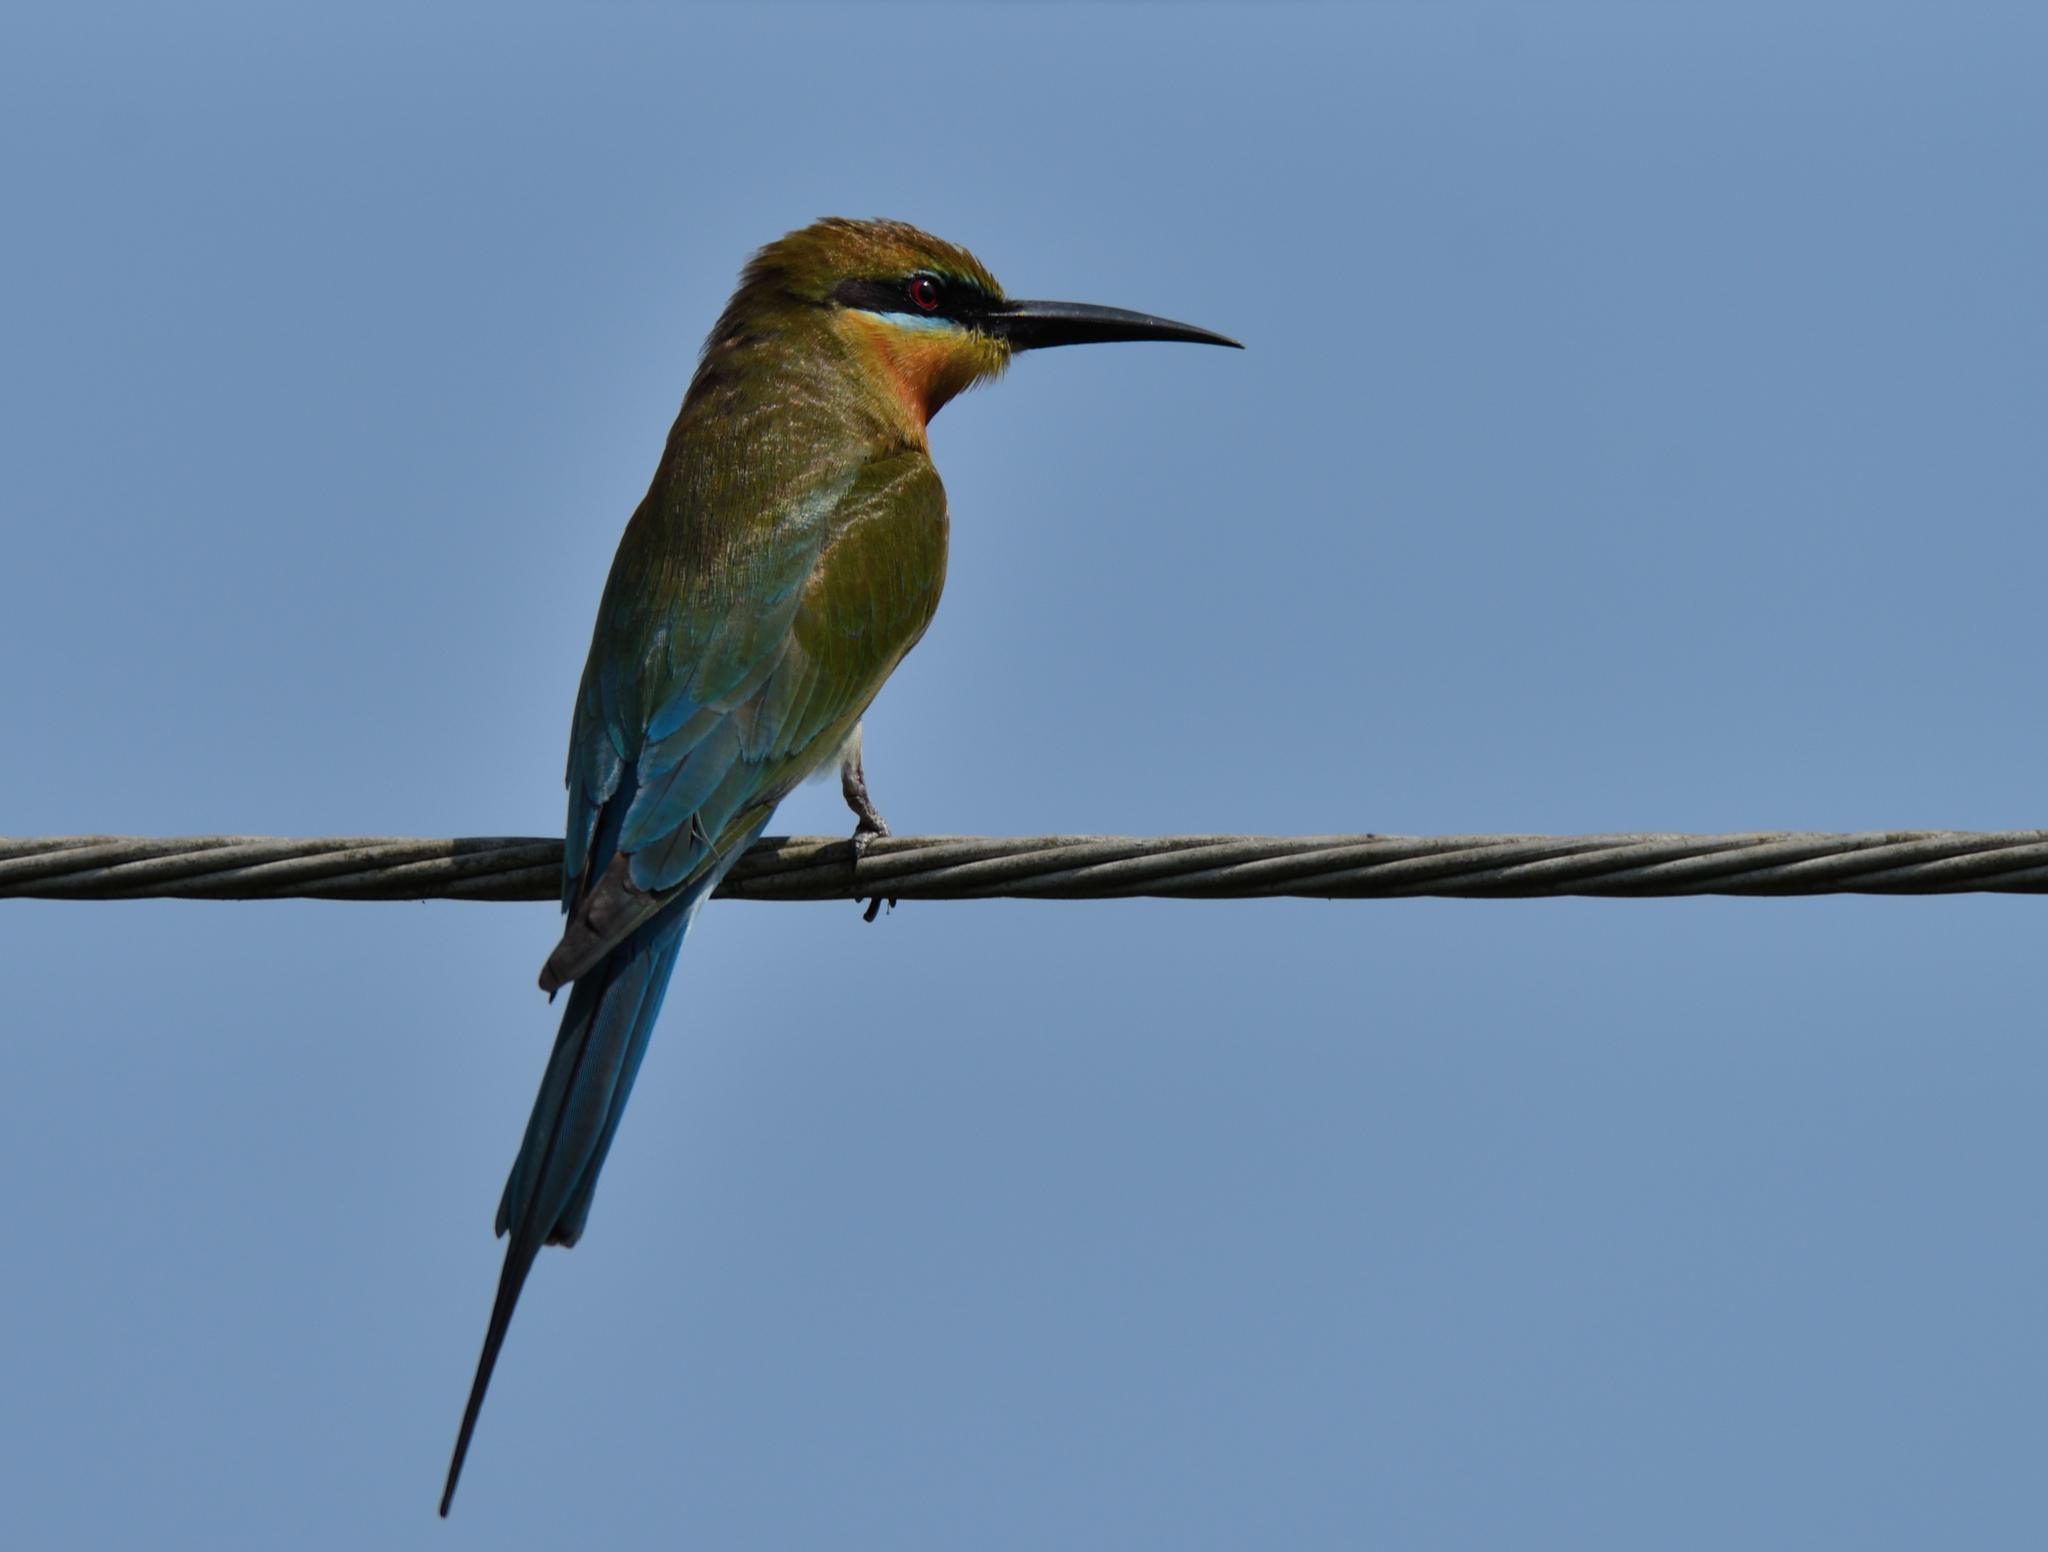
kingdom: Animalia
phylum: Chordata
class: Aves
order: Coraciiformes
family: Meropidae
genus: Merops
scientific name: Merops philippinus
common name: Blue-tailed bee-eater
